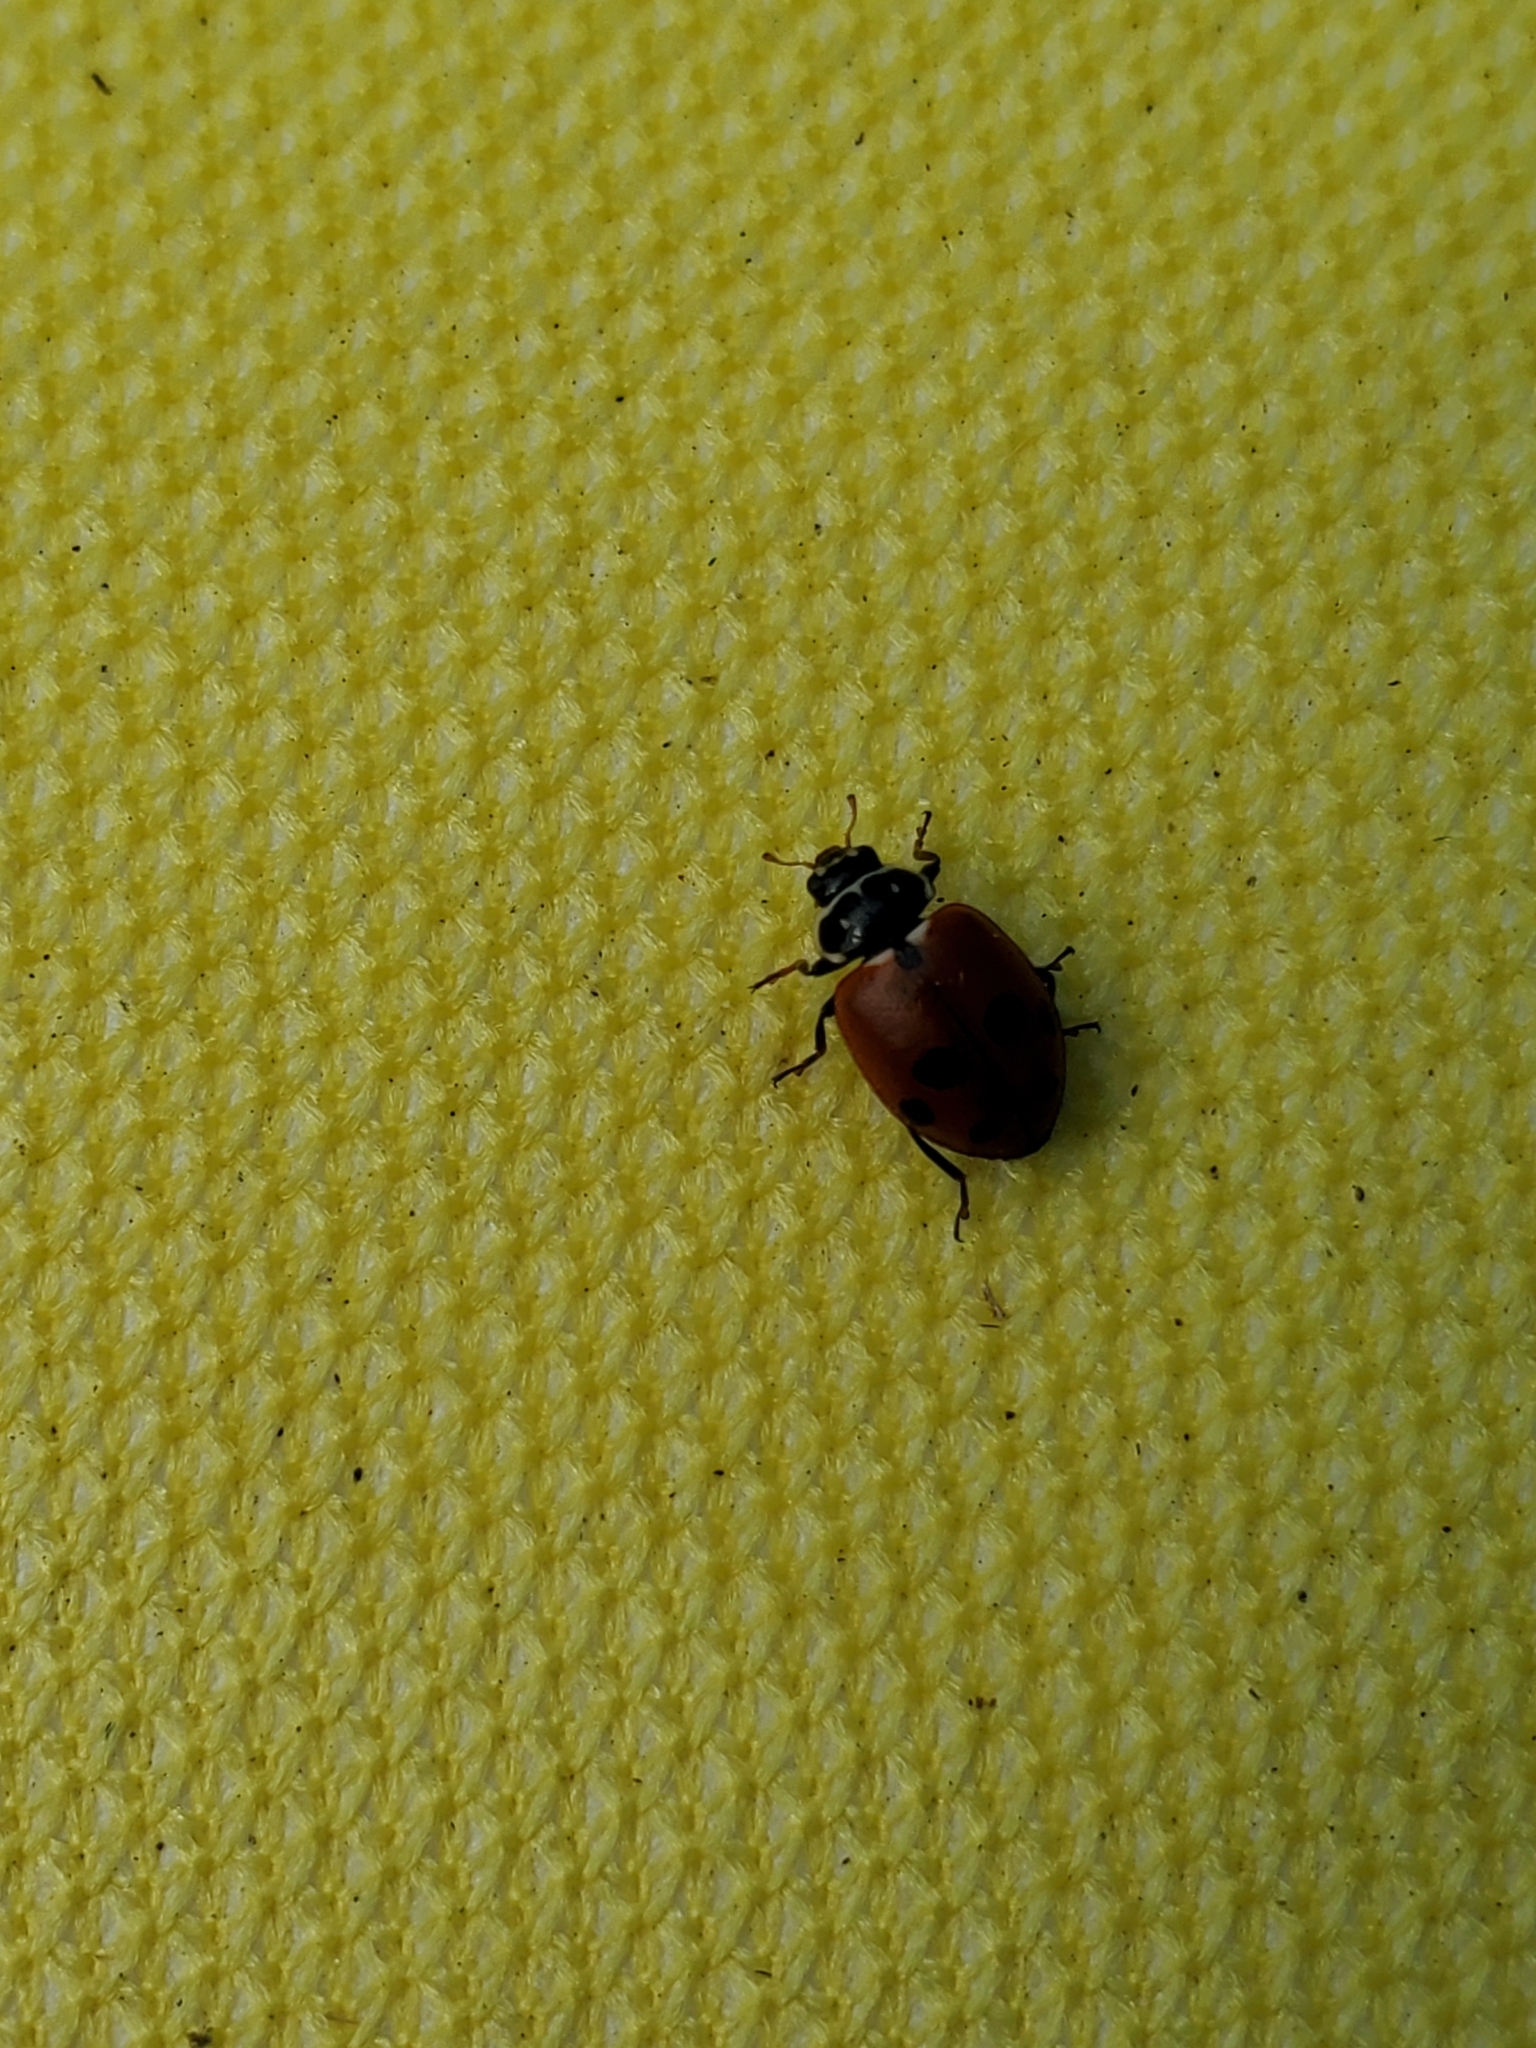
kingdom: Animalia
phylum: Arthropoda
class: Insecta
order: Coleoptera
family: Coccinellidae
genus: Hippodamia
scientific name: Hippodamia variegata
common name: Ladybird beetle
